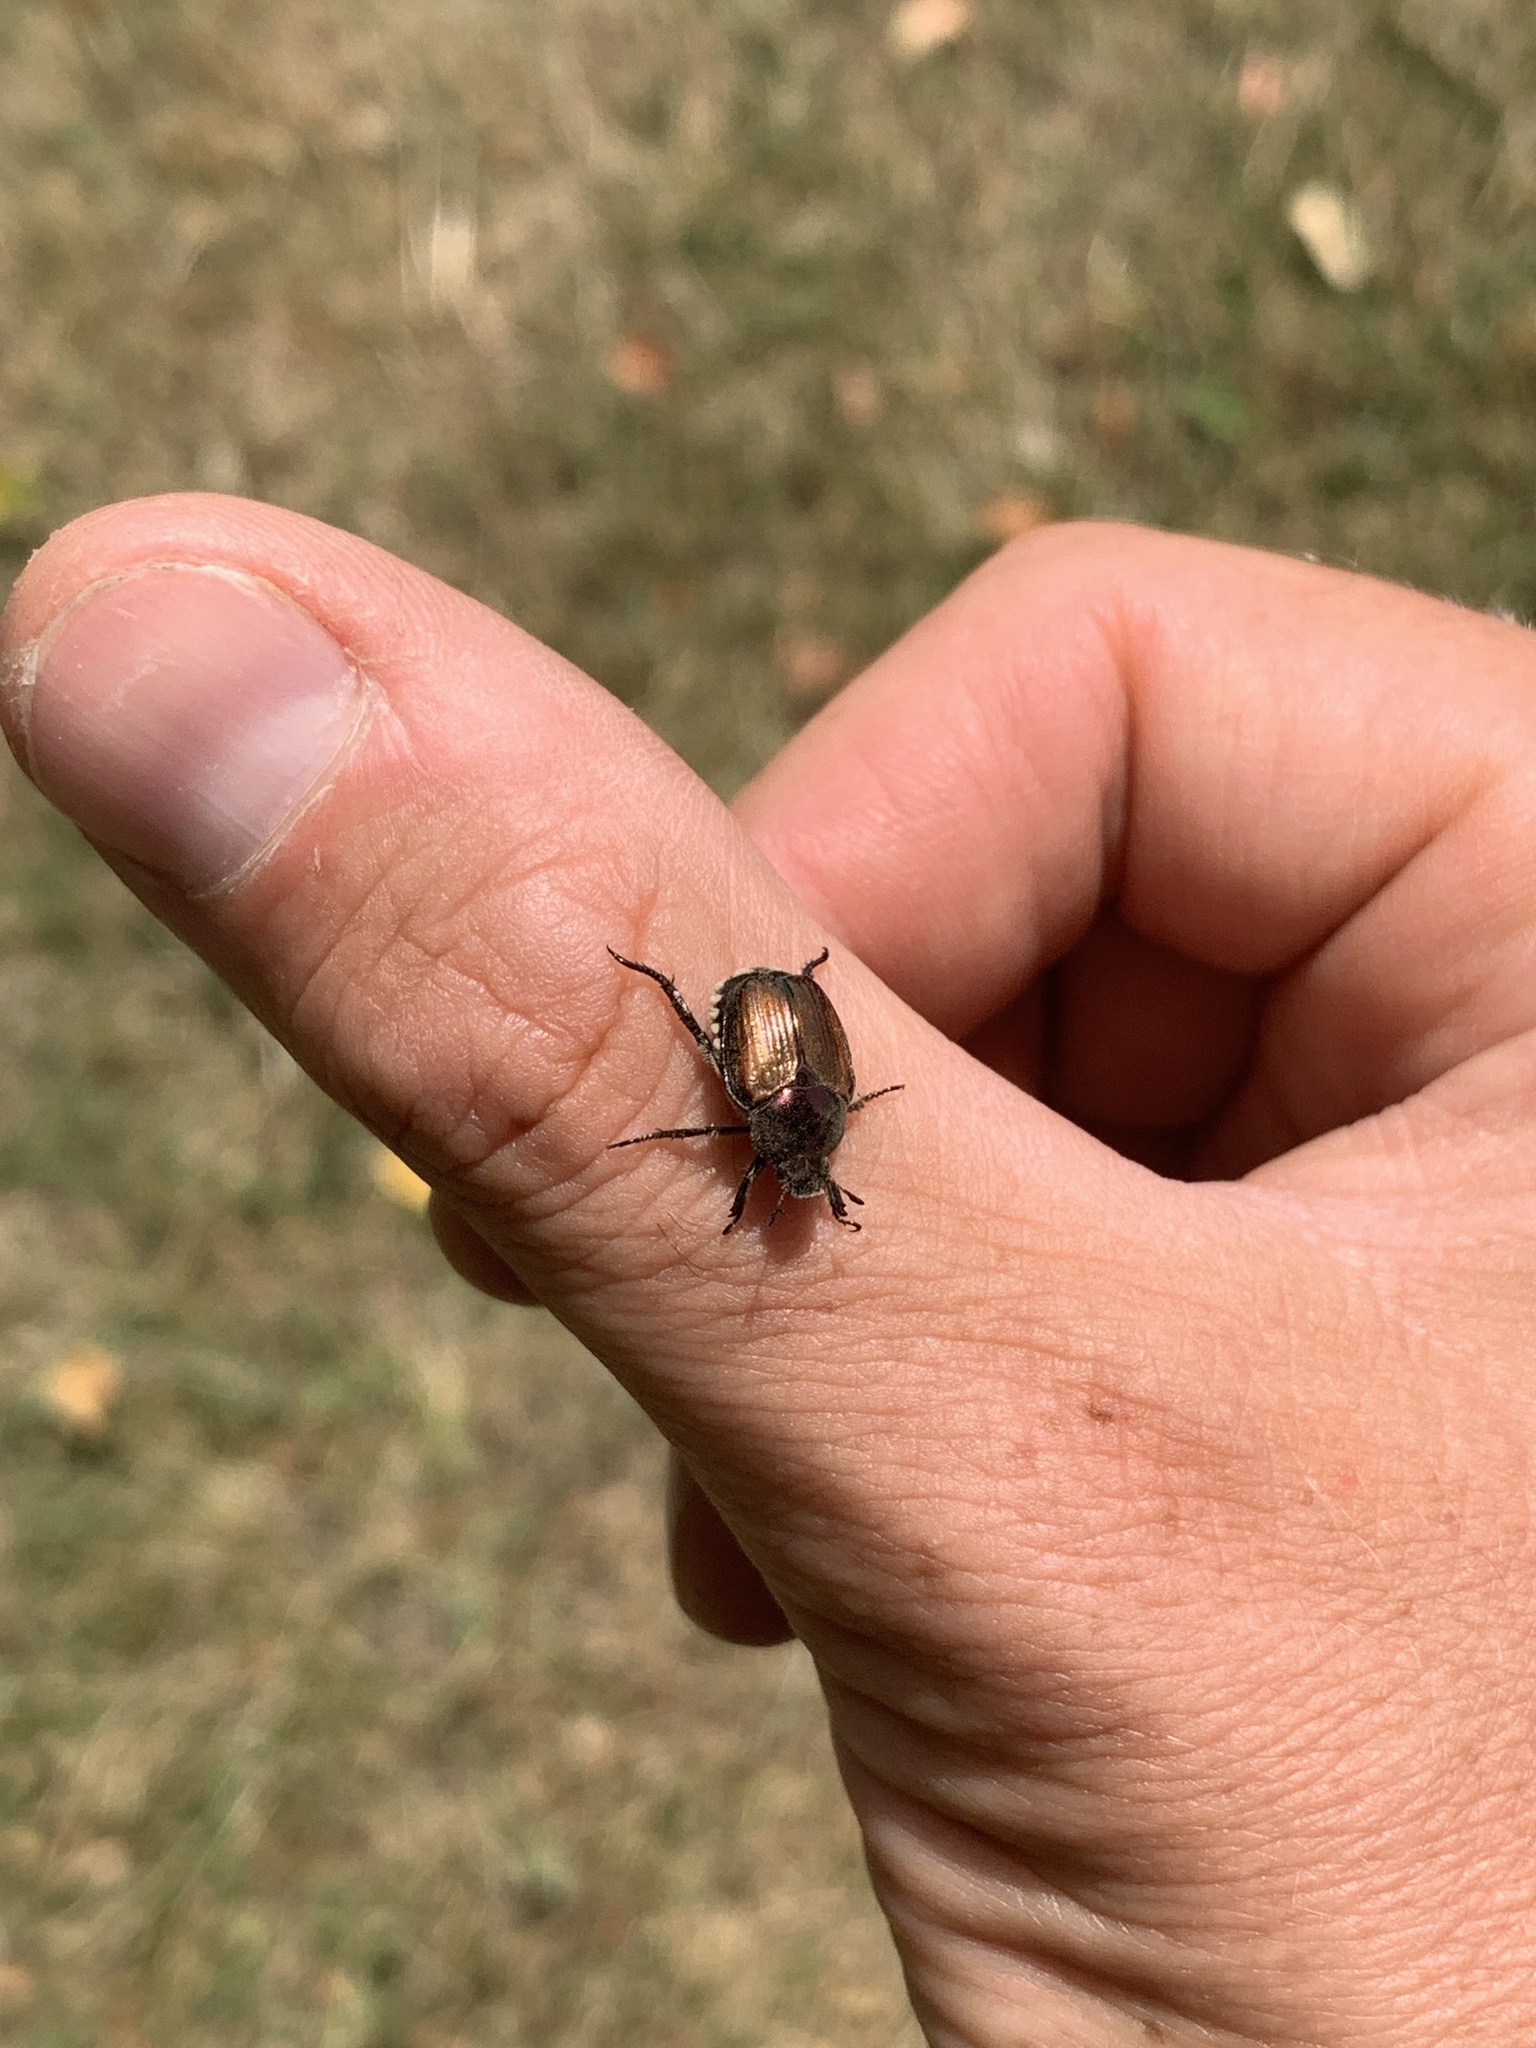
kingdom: Animalia
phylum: Arthropoda
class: Insecta
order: Coleoptera
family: Scarabaeidae
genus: Popillia
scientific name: Popillia japonica
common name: Japanese beetle
